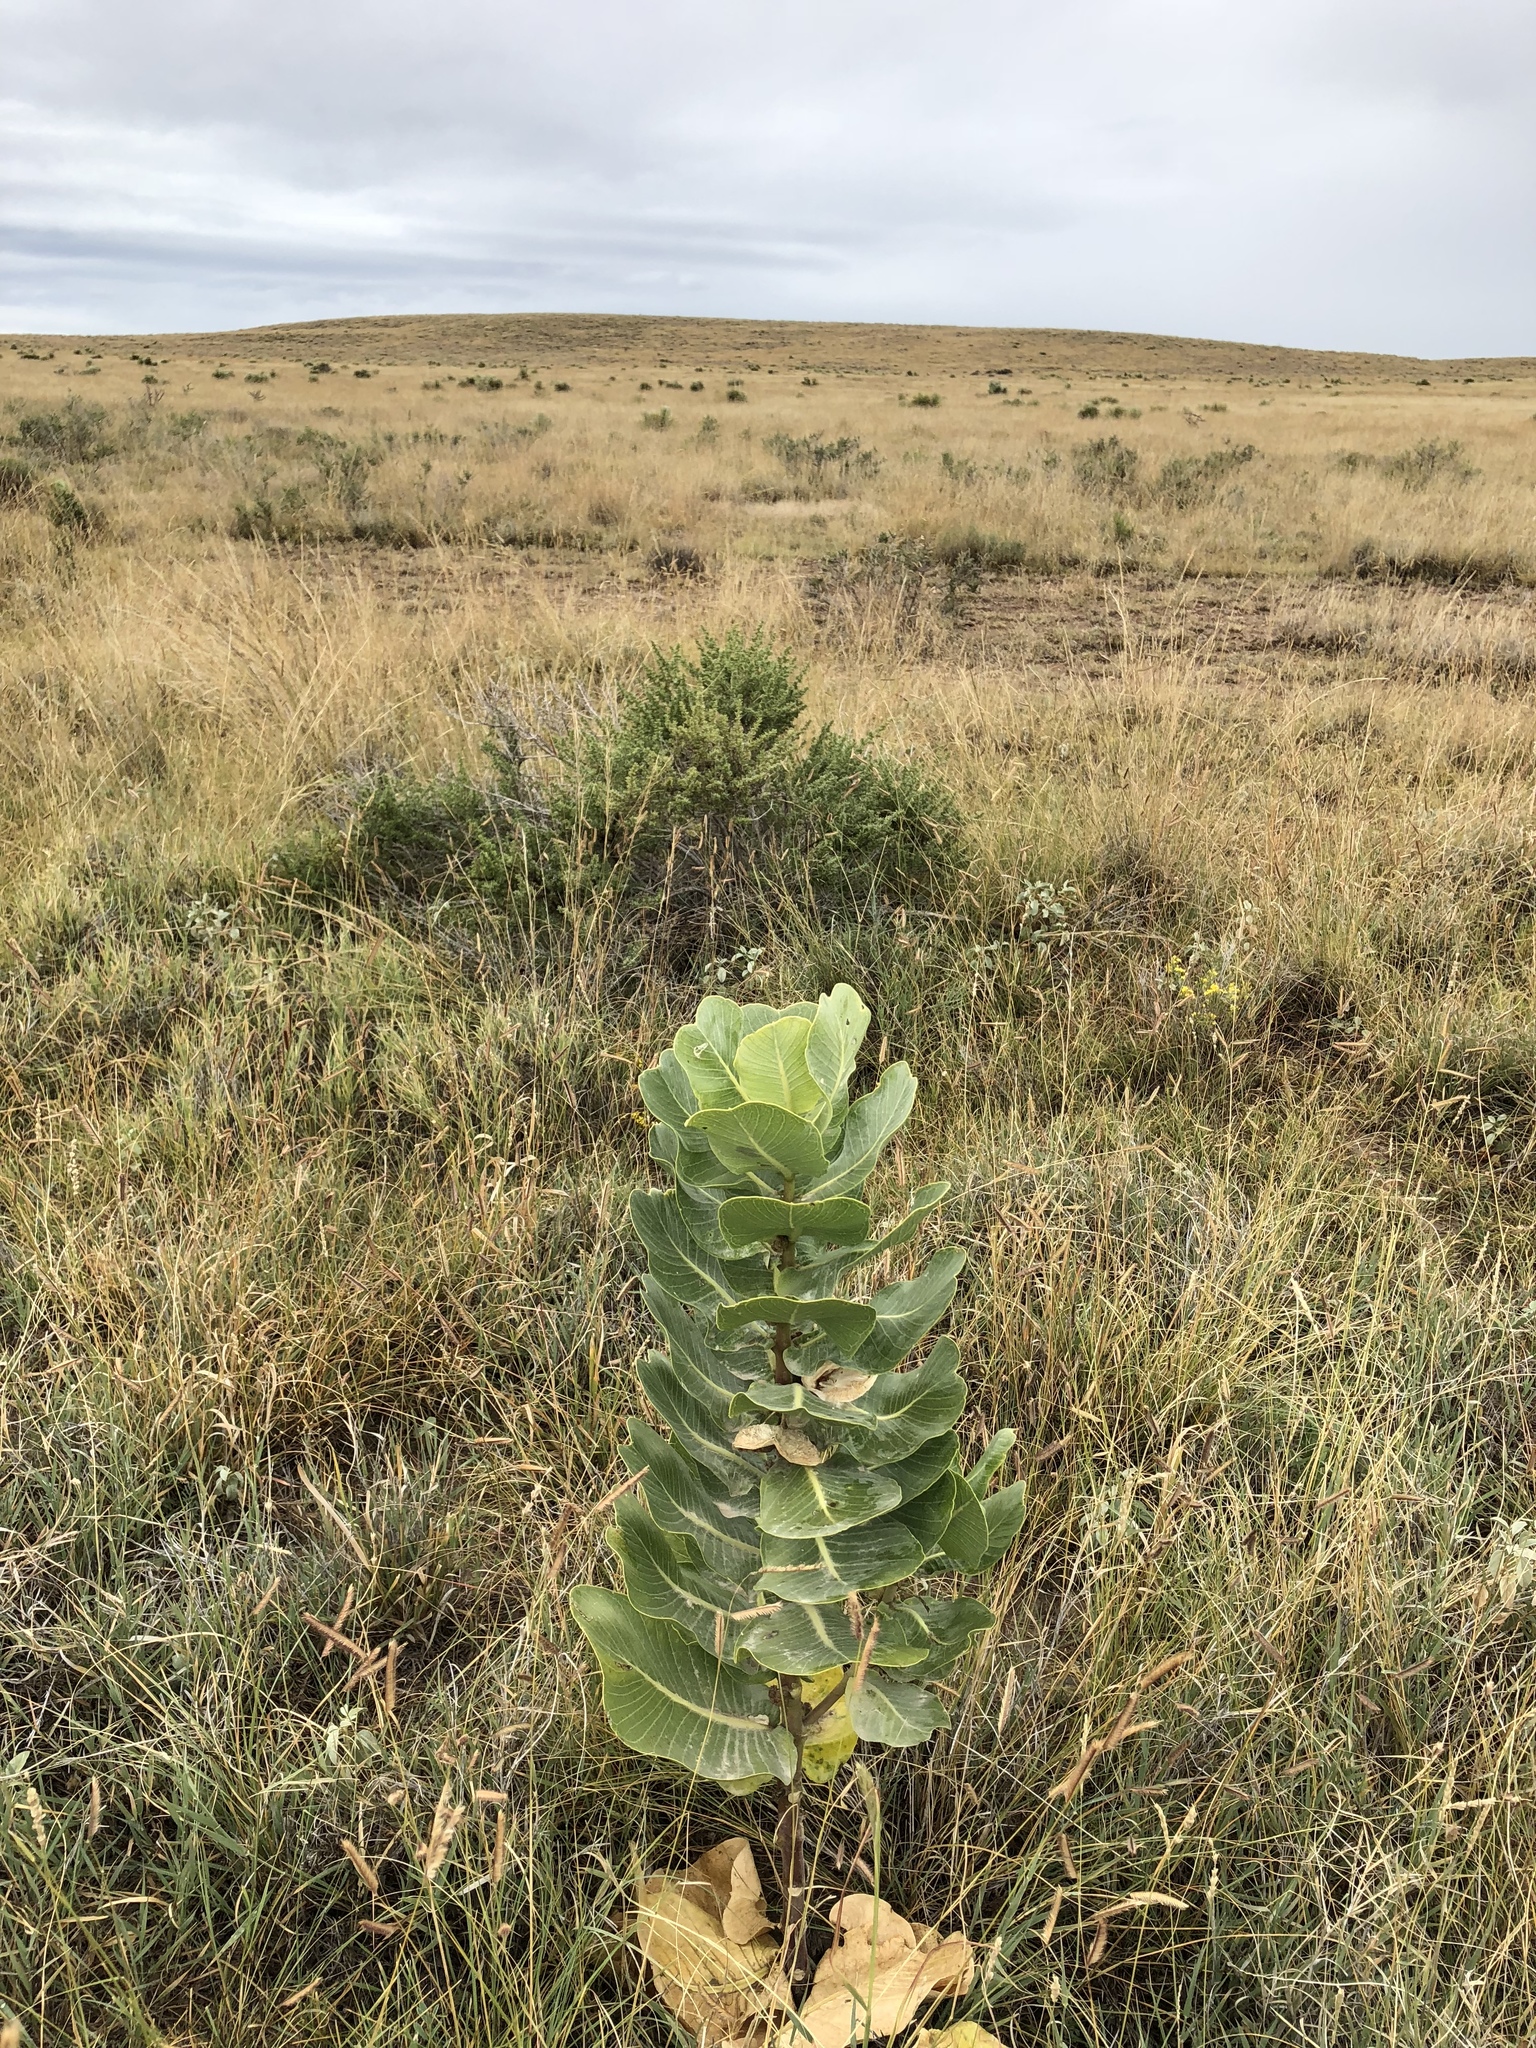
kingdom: Plantae
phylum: Tracheophyta
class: Magnoliopsida
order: Gentianales
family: Apocynaceae
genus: Asclepias
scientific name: Asclepias latifolia
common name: Broadleaf milkweed
